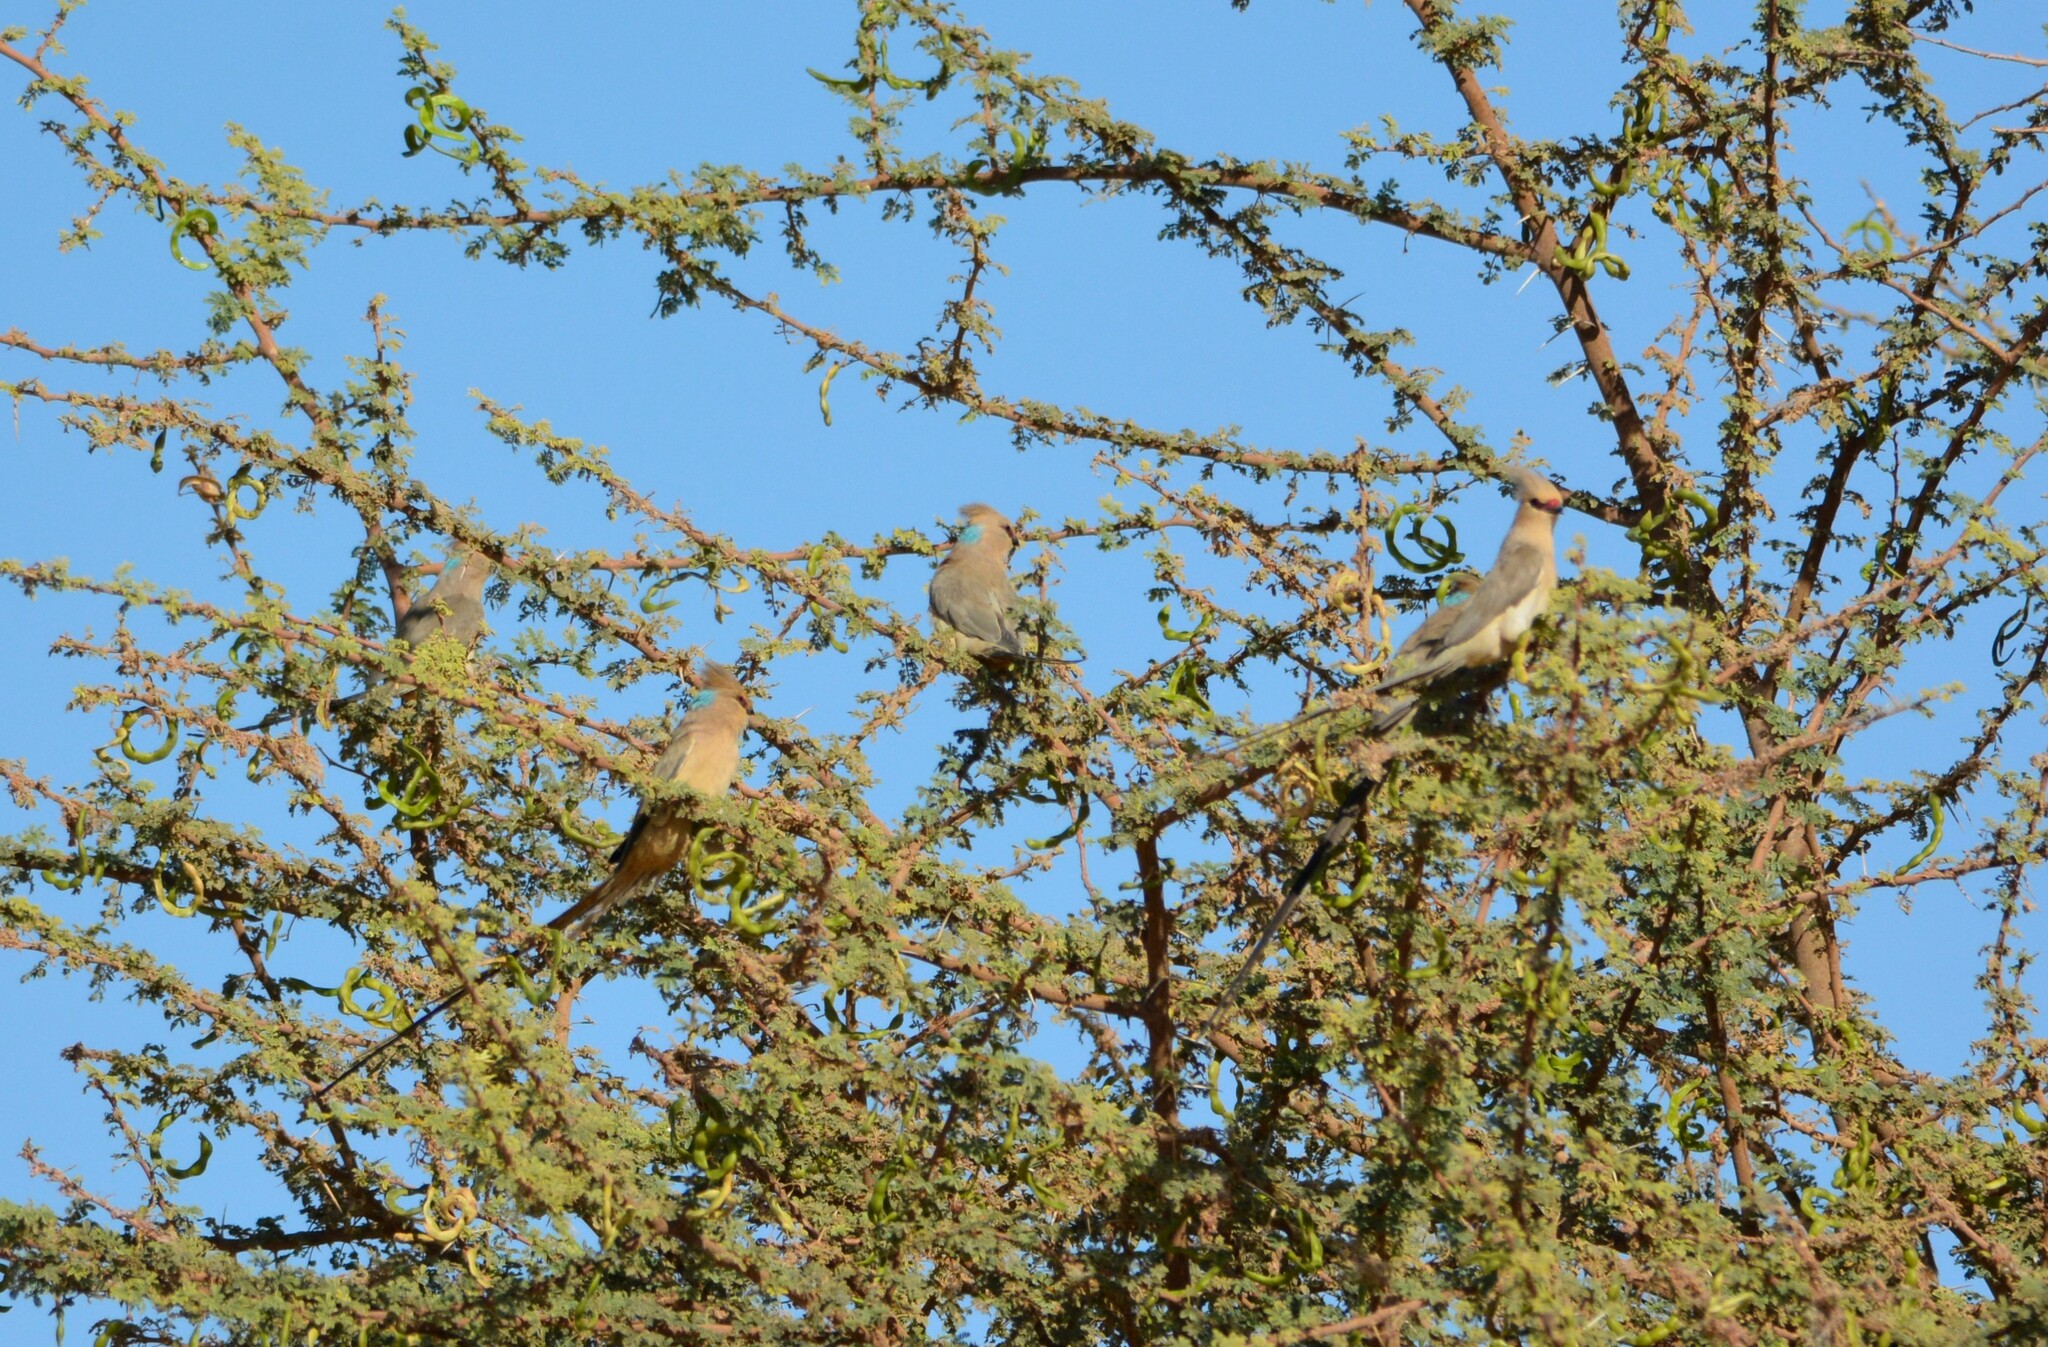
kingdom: Animalia
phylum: Chordata
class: Aves
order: Coliiformes
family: Coliidae
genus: Urocolius
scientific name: Urocolius macrourus
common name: Blue-naped mousebird
